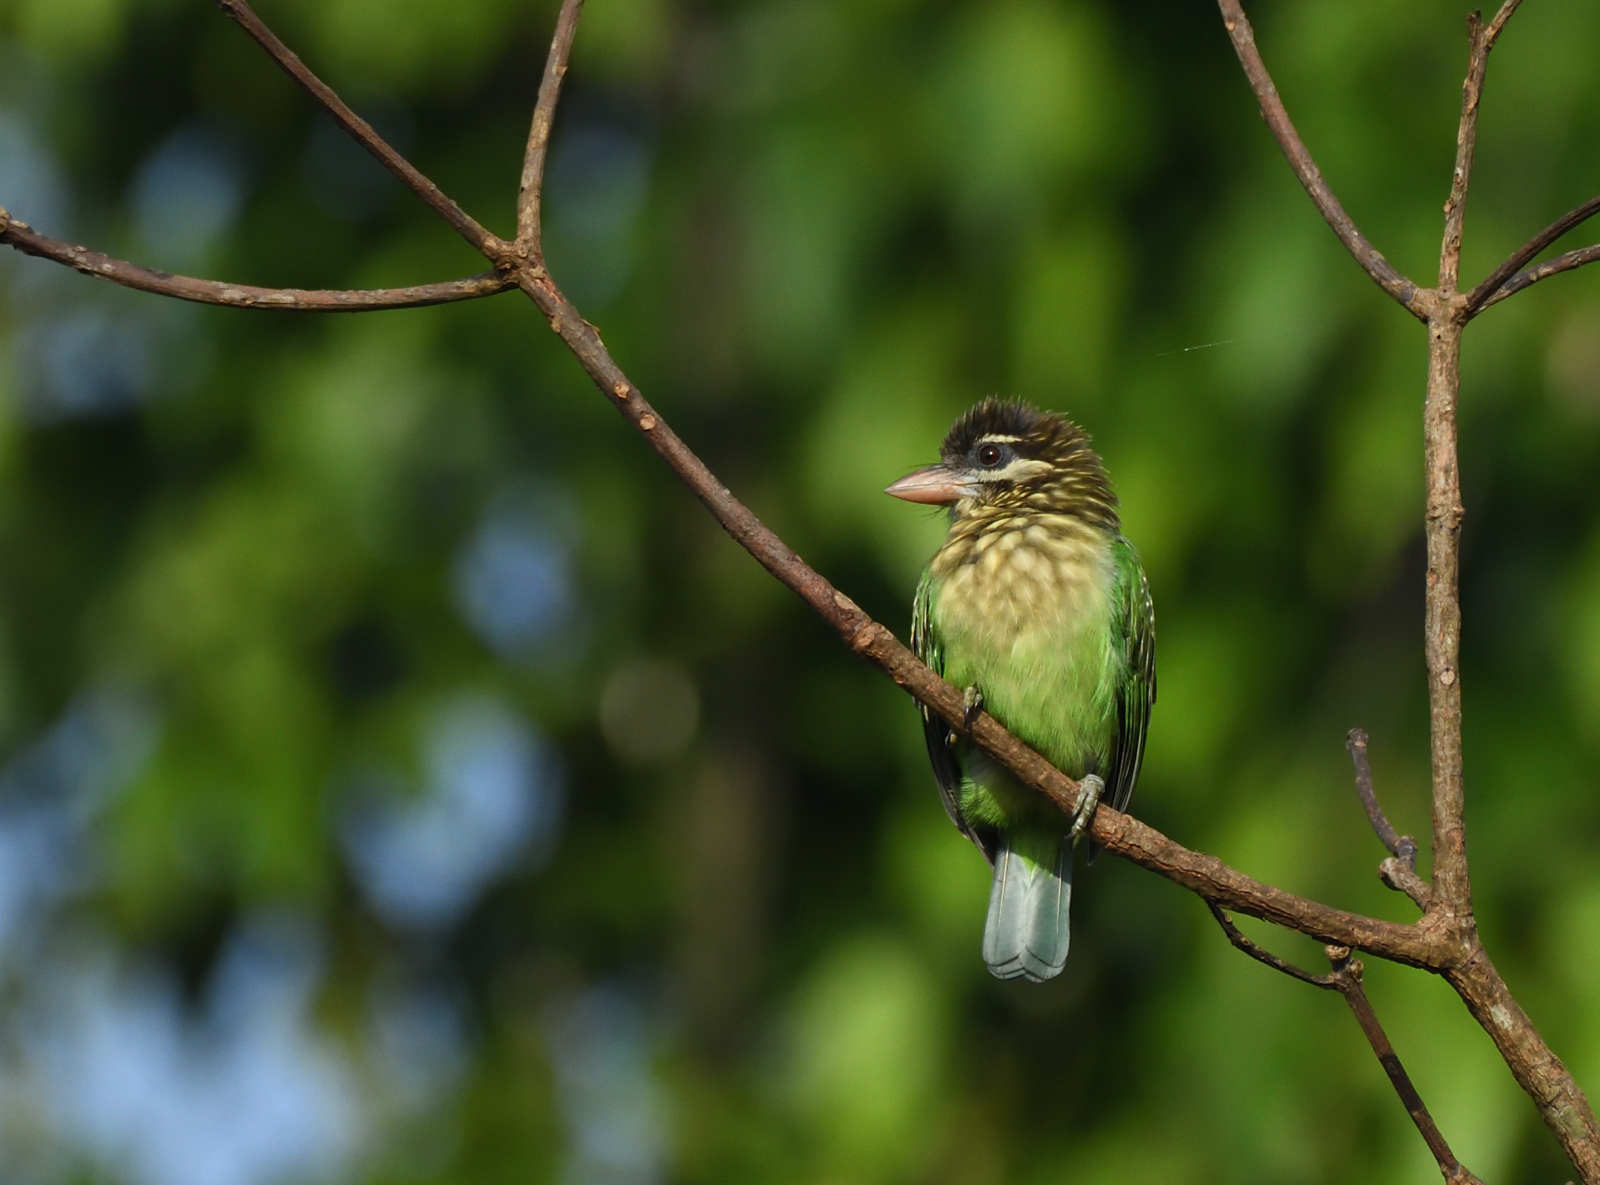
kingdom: Animalia
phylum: Chordata
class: Aves
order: Piciformes
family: Megalaimidae
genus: Psilopogon
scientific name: Psilopogon viridis
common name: White-cheeked barbet
